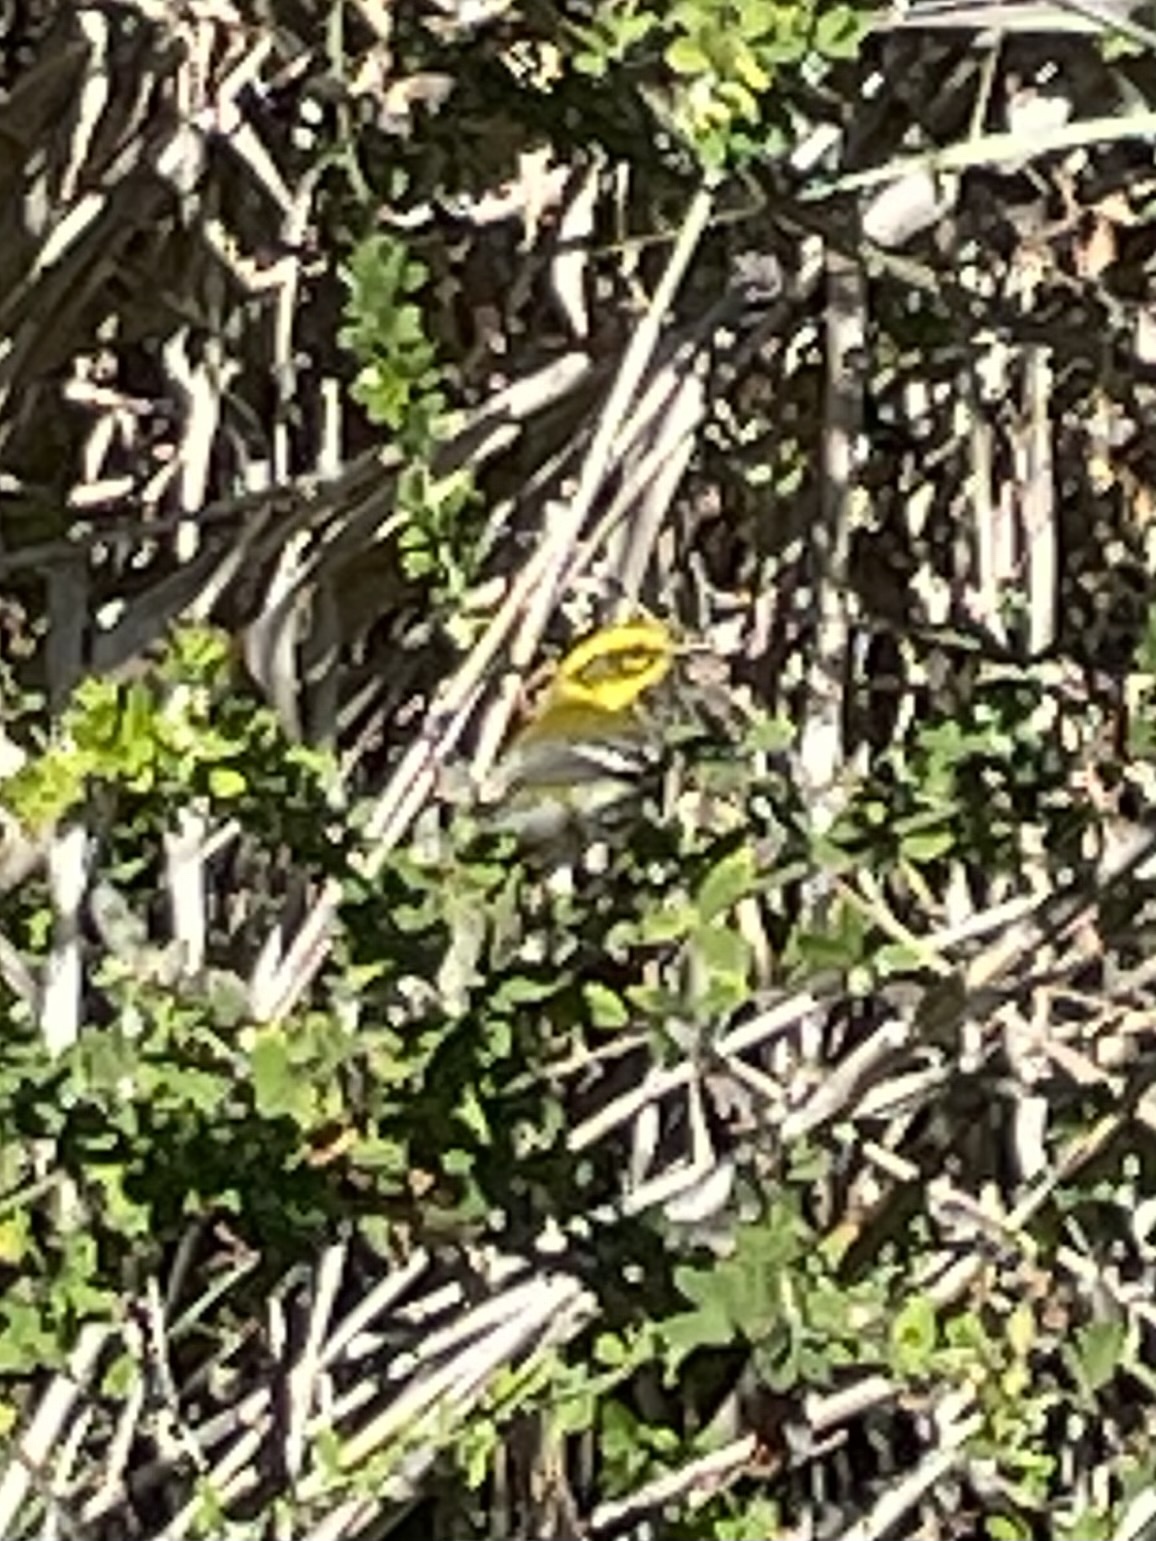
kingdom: Animalia
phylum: Chordata
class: Aves
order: Passeriformes
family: Parulidae
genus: Setophaga
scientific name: Setophaga townsendi
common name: Townsend's warbler
